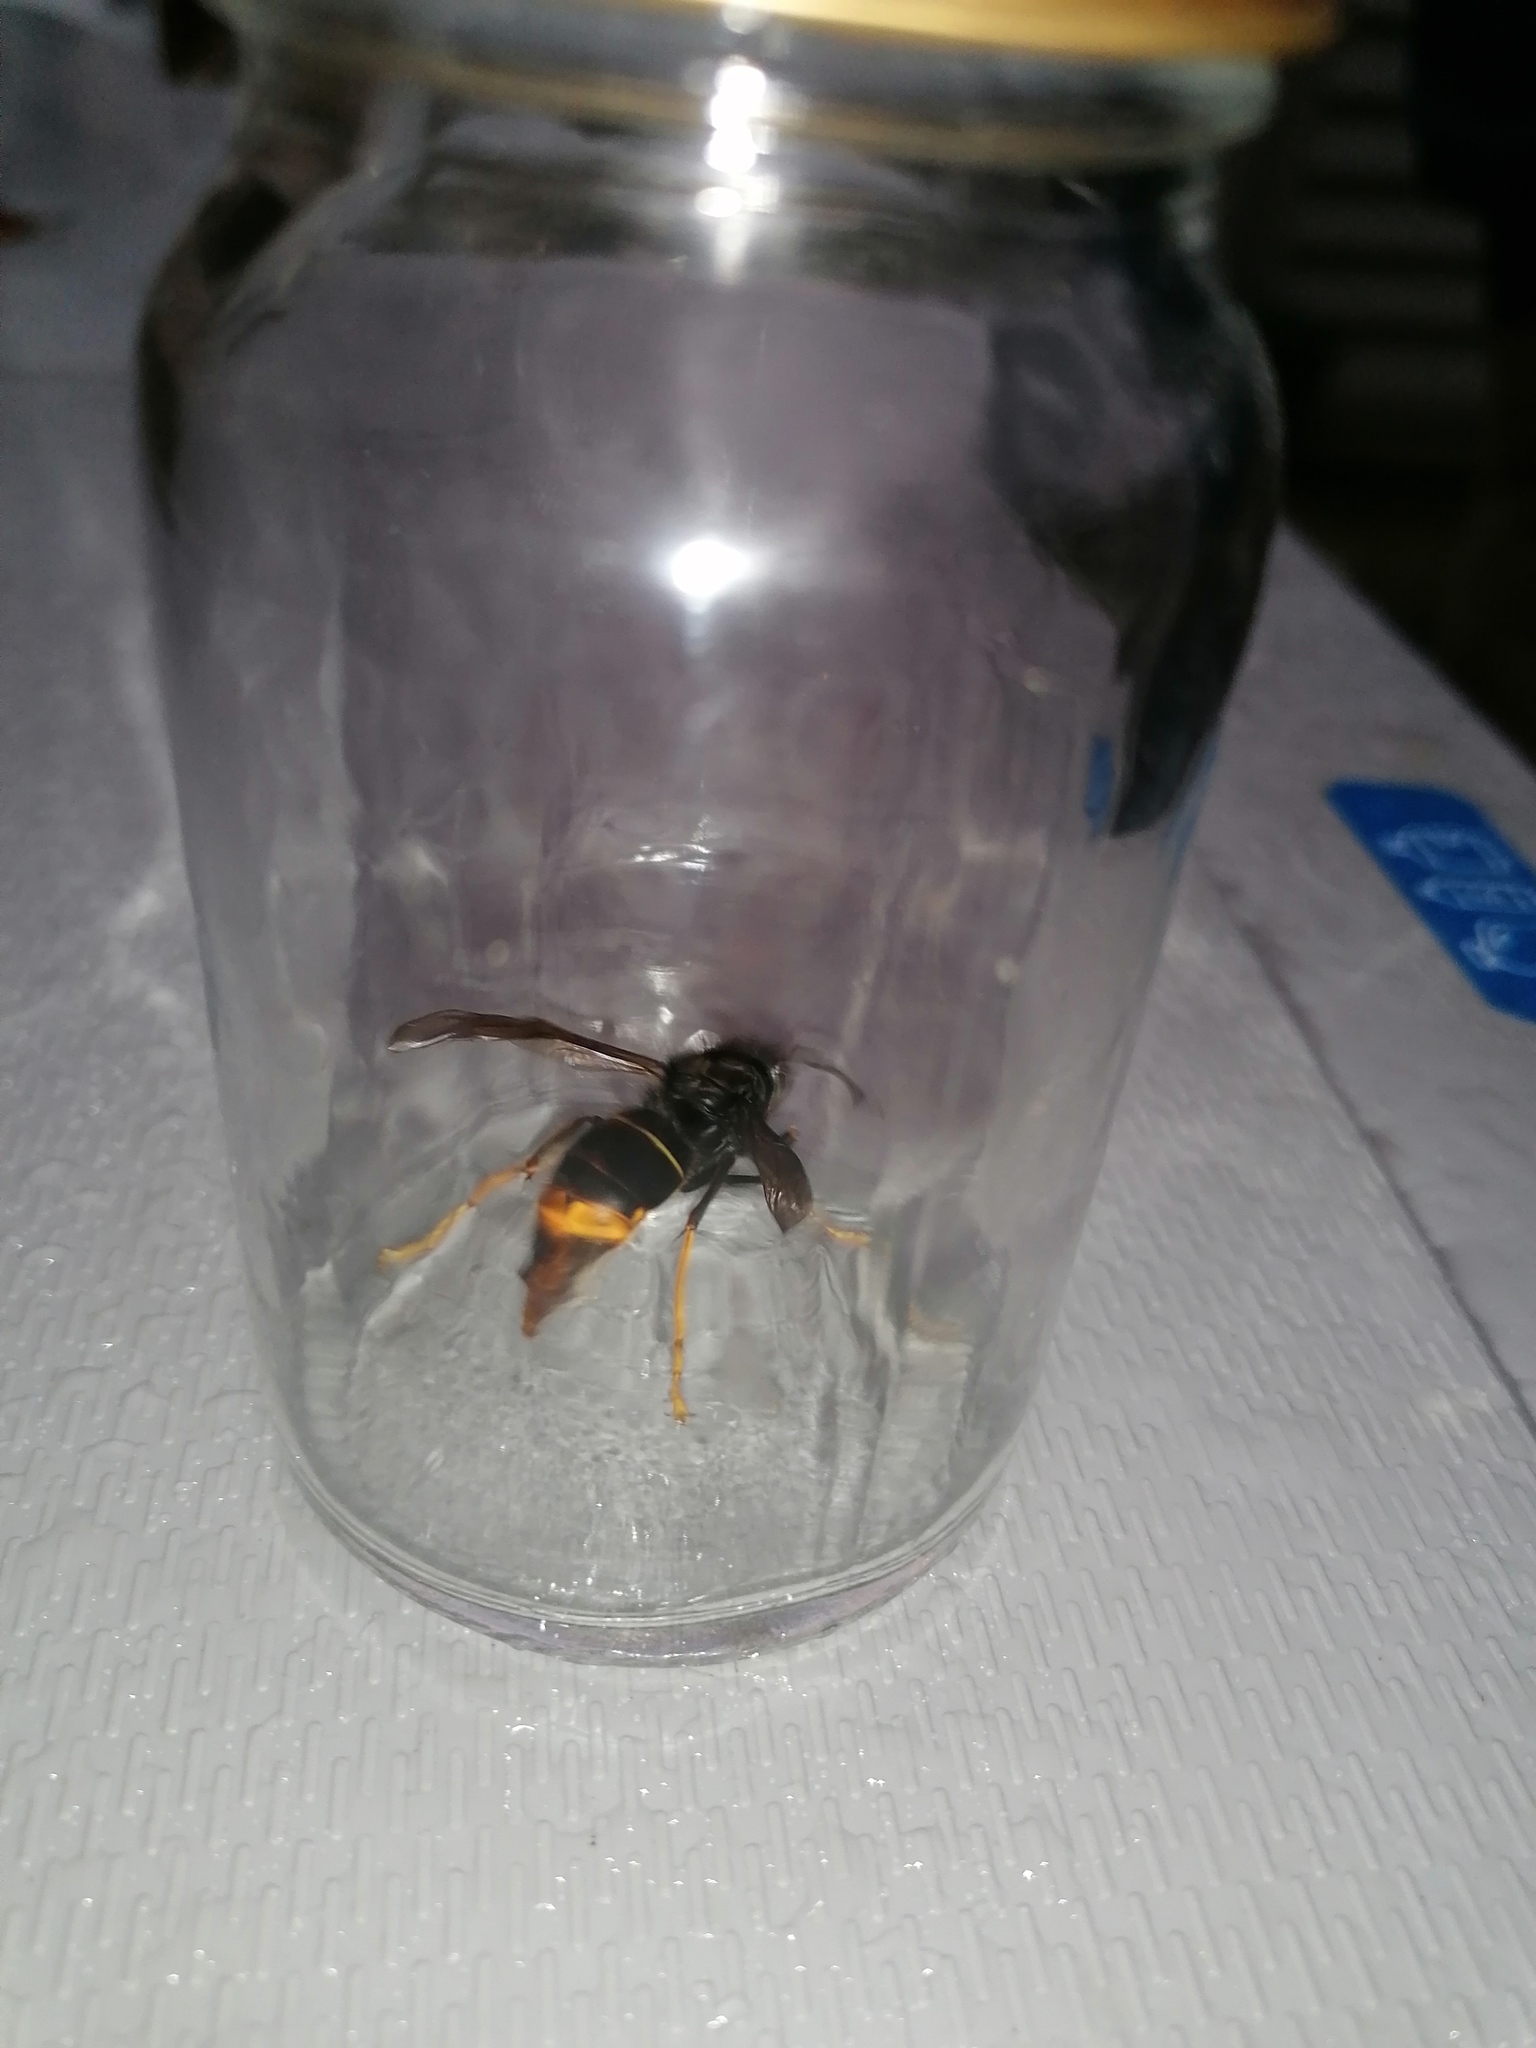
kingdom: Animalia
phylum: Arthropoda
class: Insecta
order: Hymenoptera
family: Vespidae
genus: Vespa
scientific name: Vespa velutina
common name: Asian hornet
